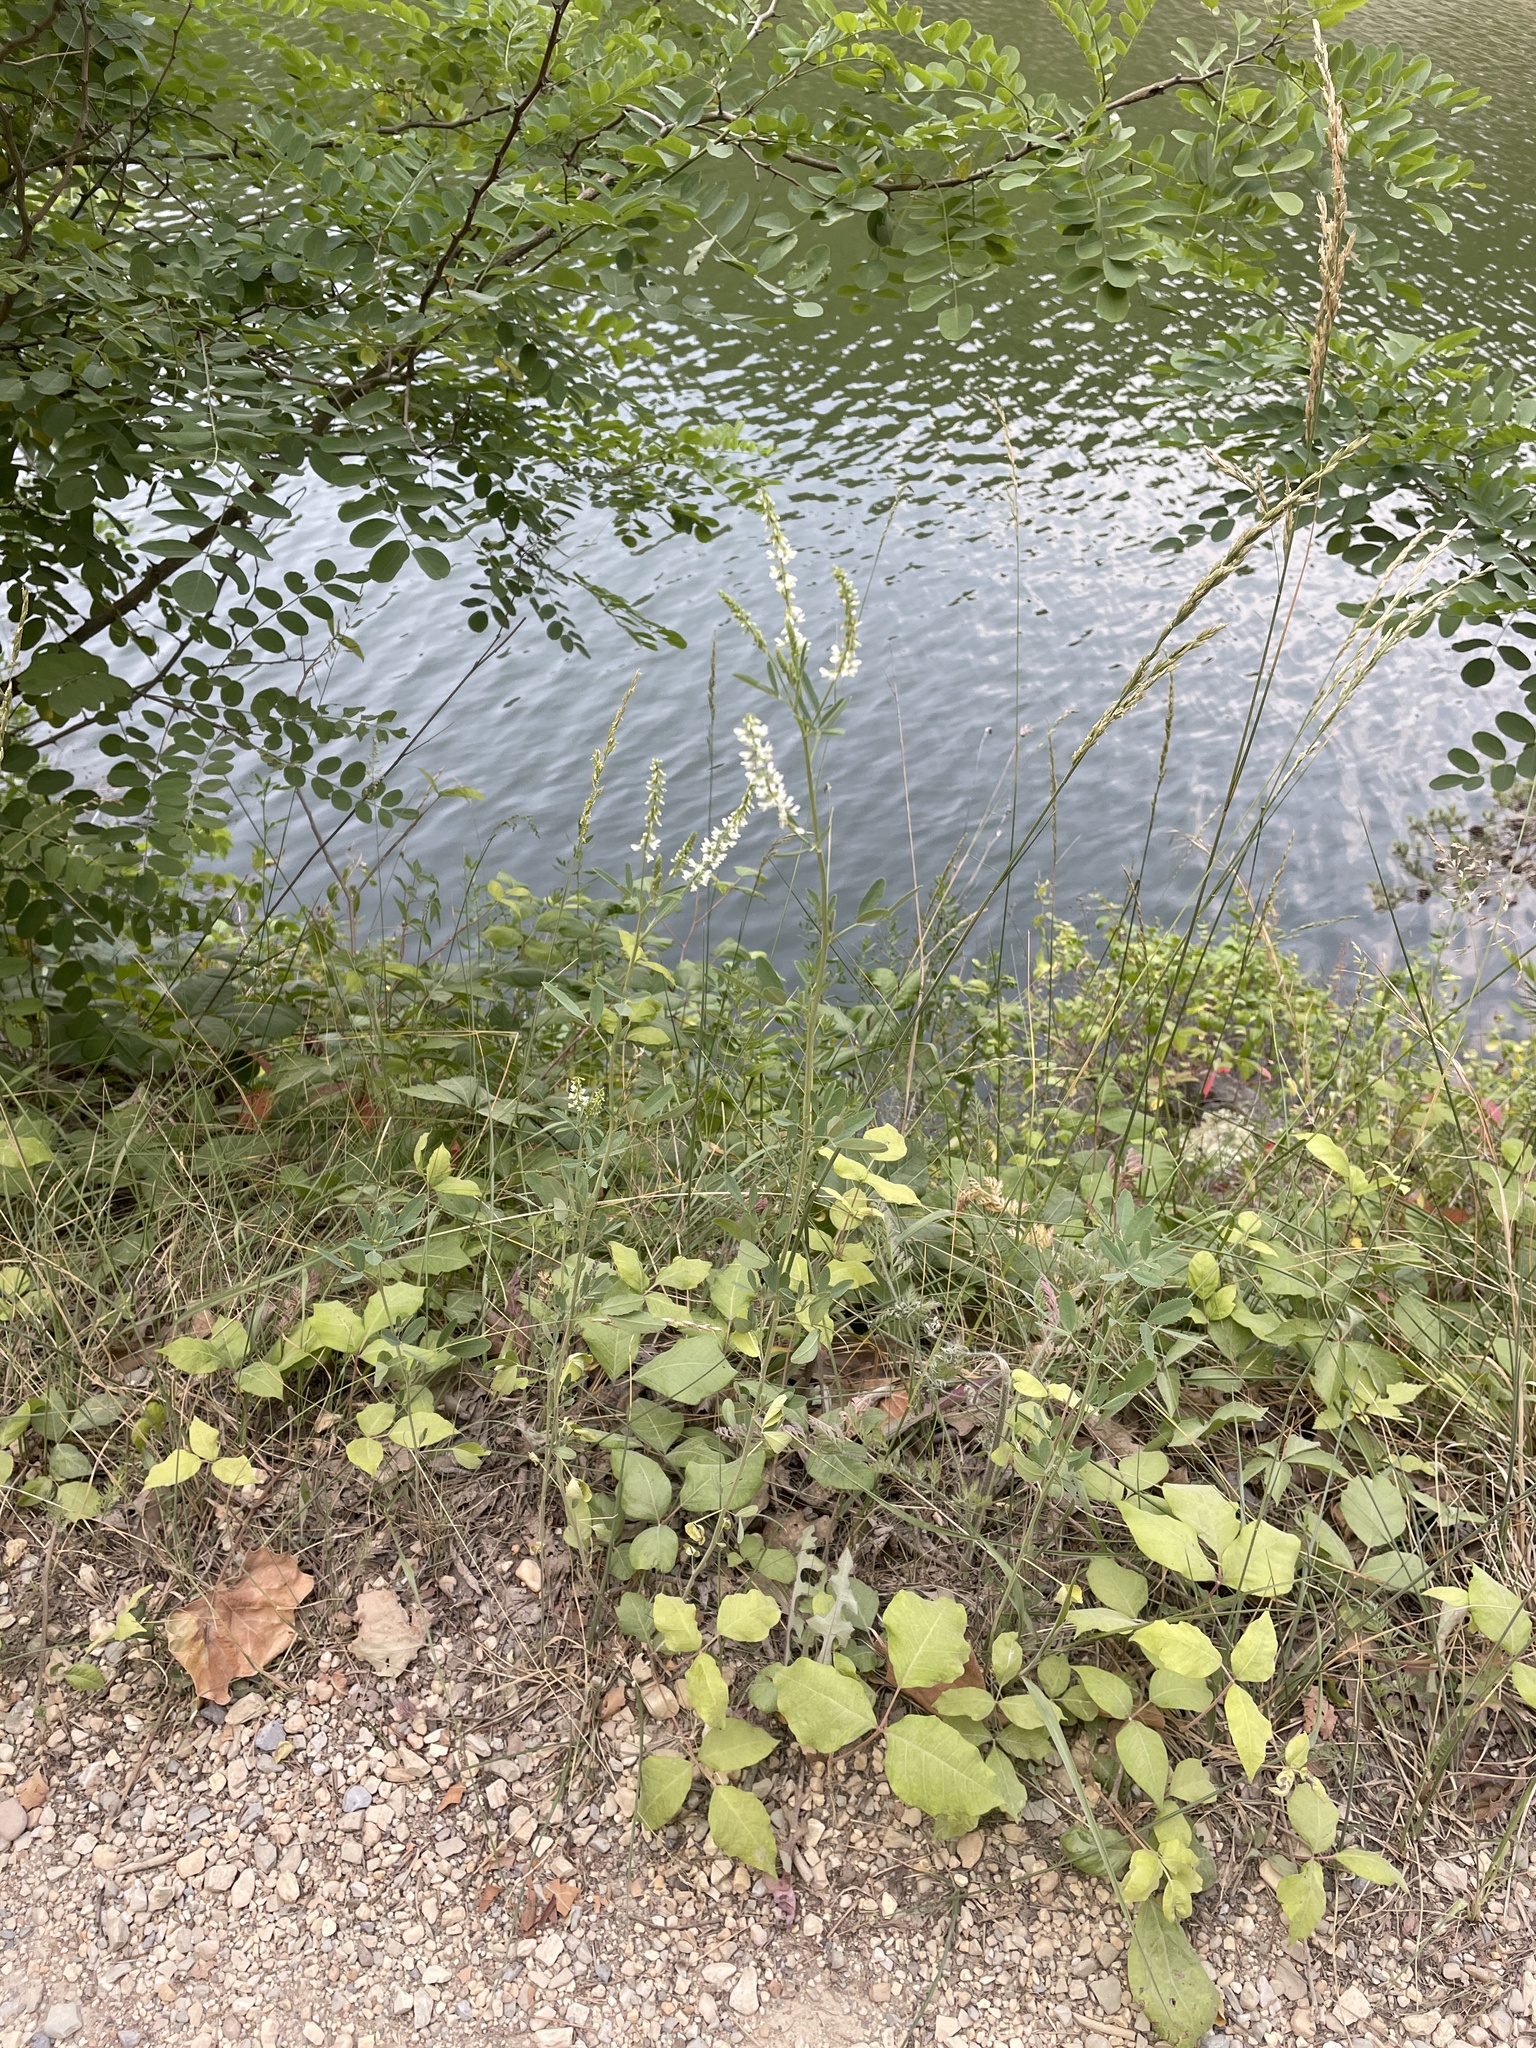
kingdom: Plantae
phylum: Tracheophyta
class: Magnoliopsida
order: Fabales
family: Fabaceae
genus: Melilotus
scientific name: Melilotus albus
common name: White melilot
